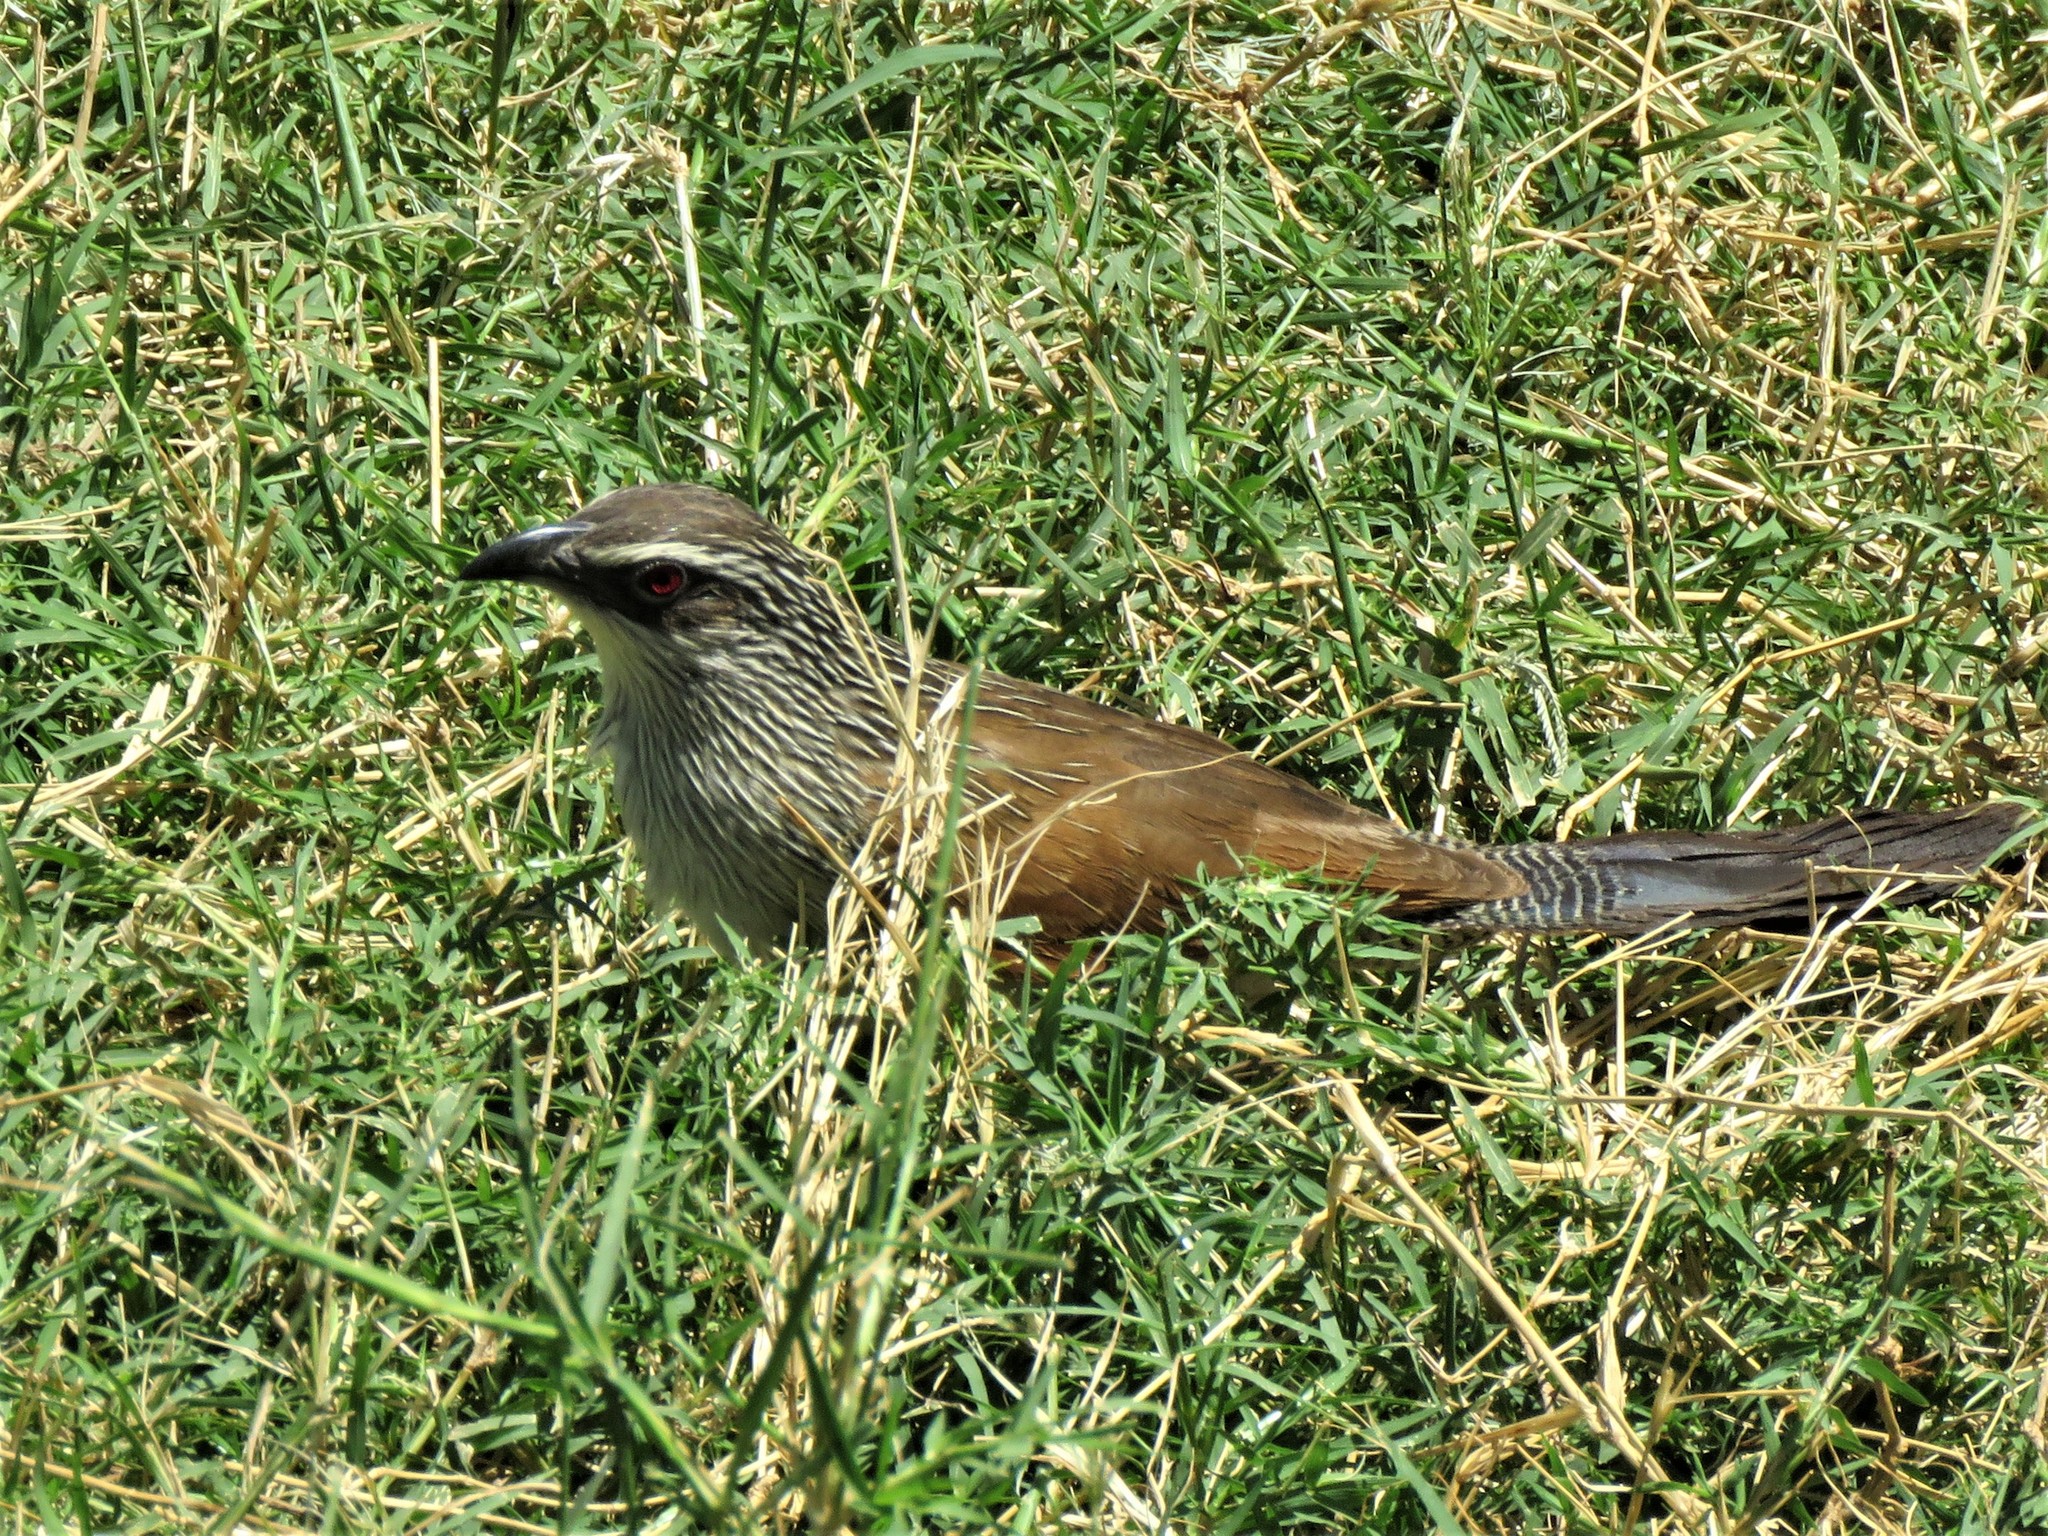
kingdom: Animalia
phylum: Chordata
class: Aves
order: Cuculiformes
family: Cuculidae
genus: Centropus
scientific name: Centropus superciliosus
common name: White-browed coucal
